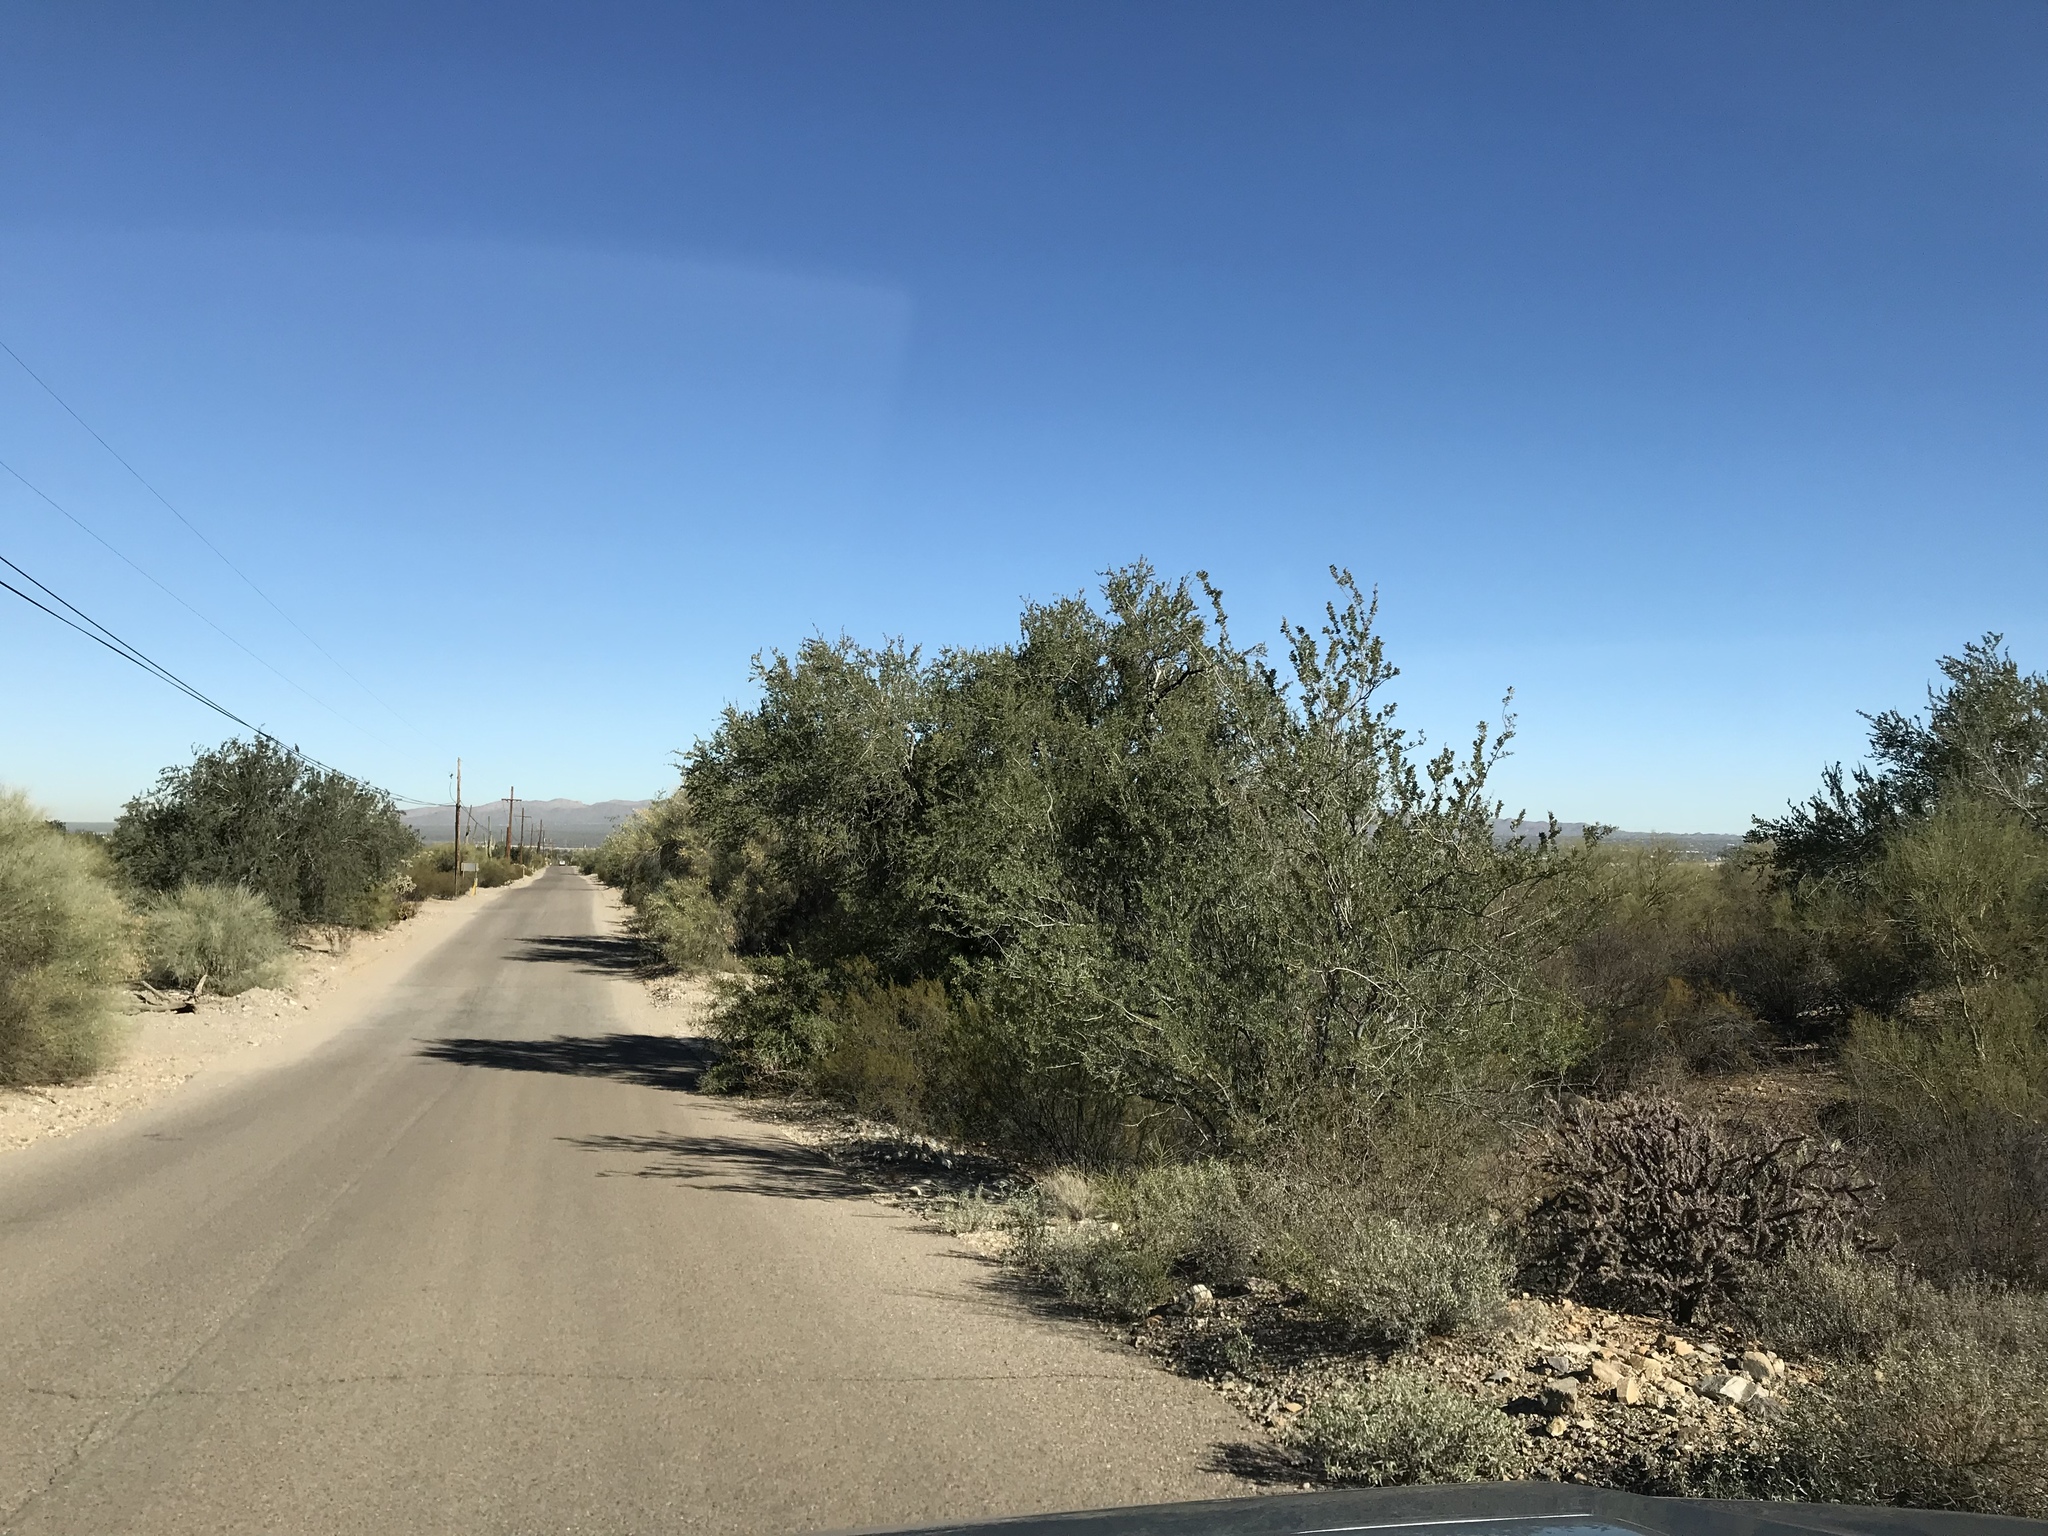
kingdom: Plantae
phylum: Tracheophyta
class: Magnoliopsida
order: Fabales
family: Fabaceae
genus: Olneya
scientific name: Olneya tesota
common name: Desert ironwood
